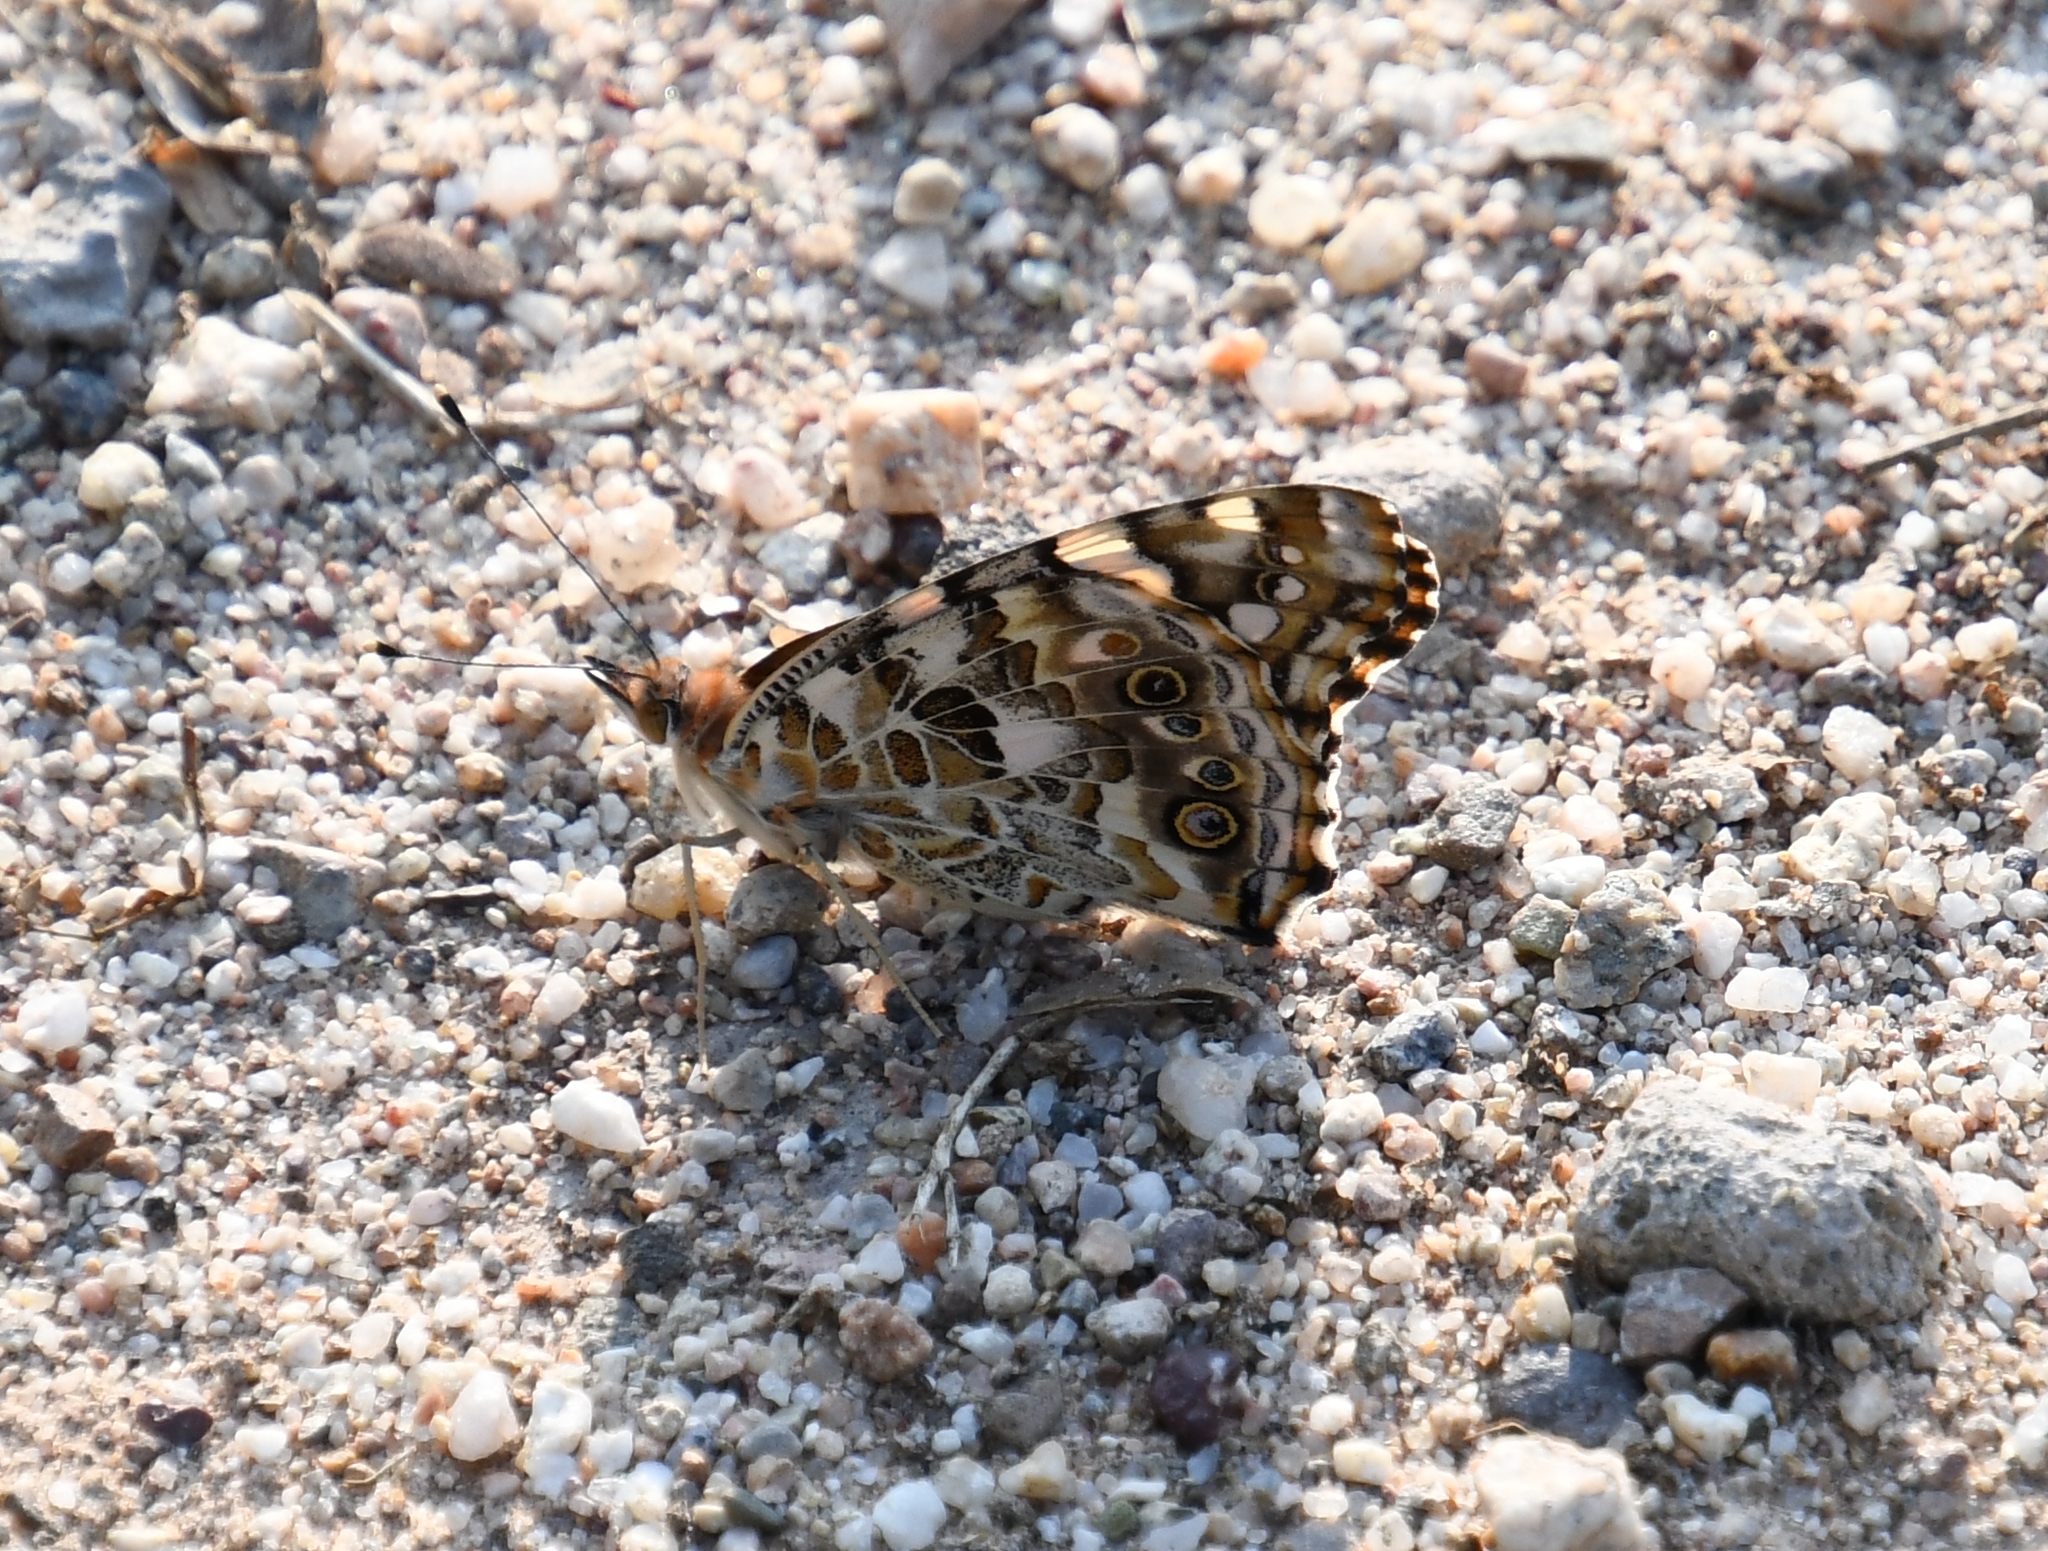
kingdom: Animalia
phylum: Arthropoda
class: Insecta
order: Lepidoptera
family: Nymphalidae
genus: Vanessa
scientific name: Vanessa cardui
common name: Painted lady
